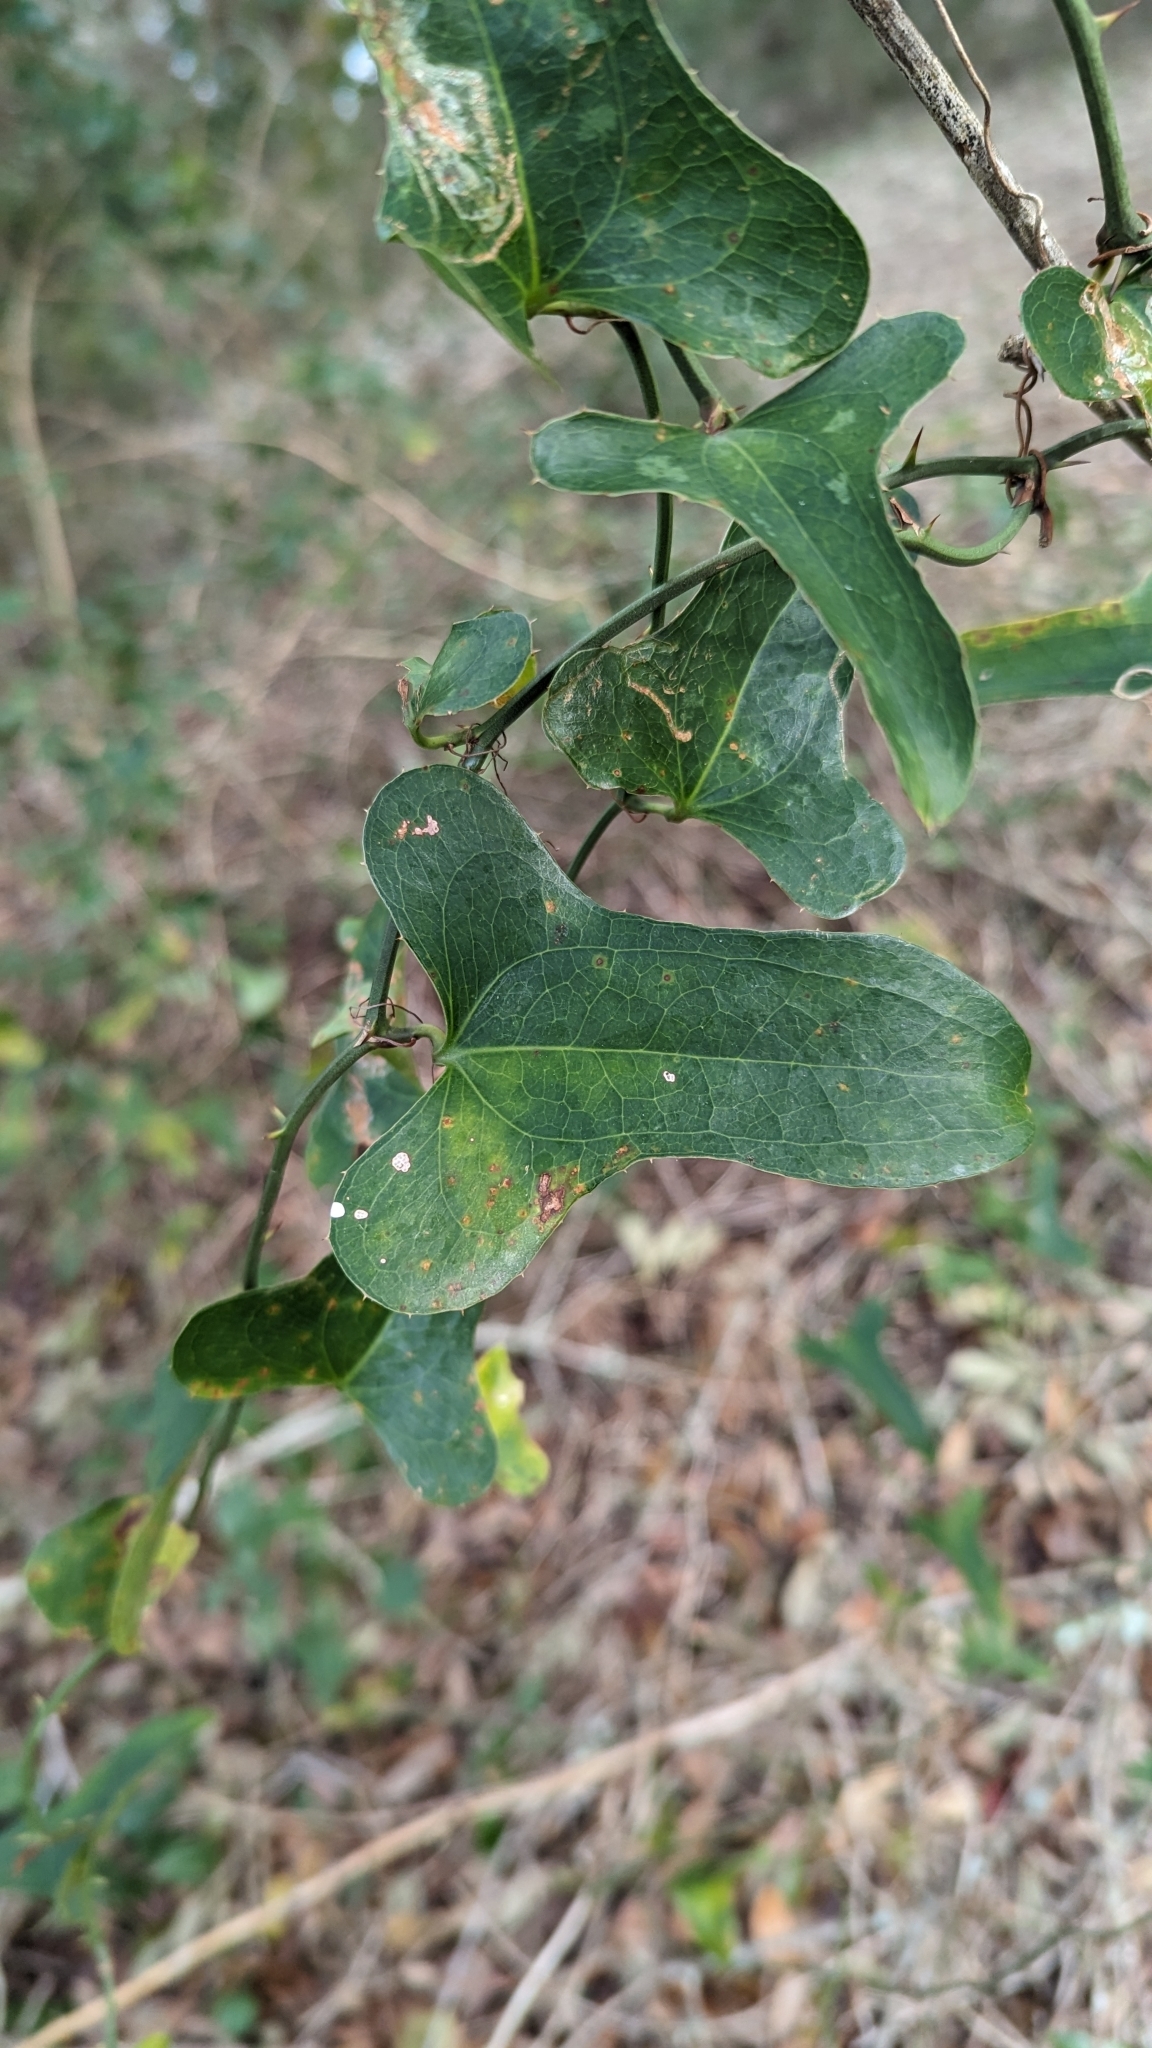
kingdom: Plantae
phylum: Tracheophyta
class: Liliopsida
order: Liliales
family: Smilacaceae
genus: Smilax
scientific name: Smilax bona-nox
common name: Catbrier
